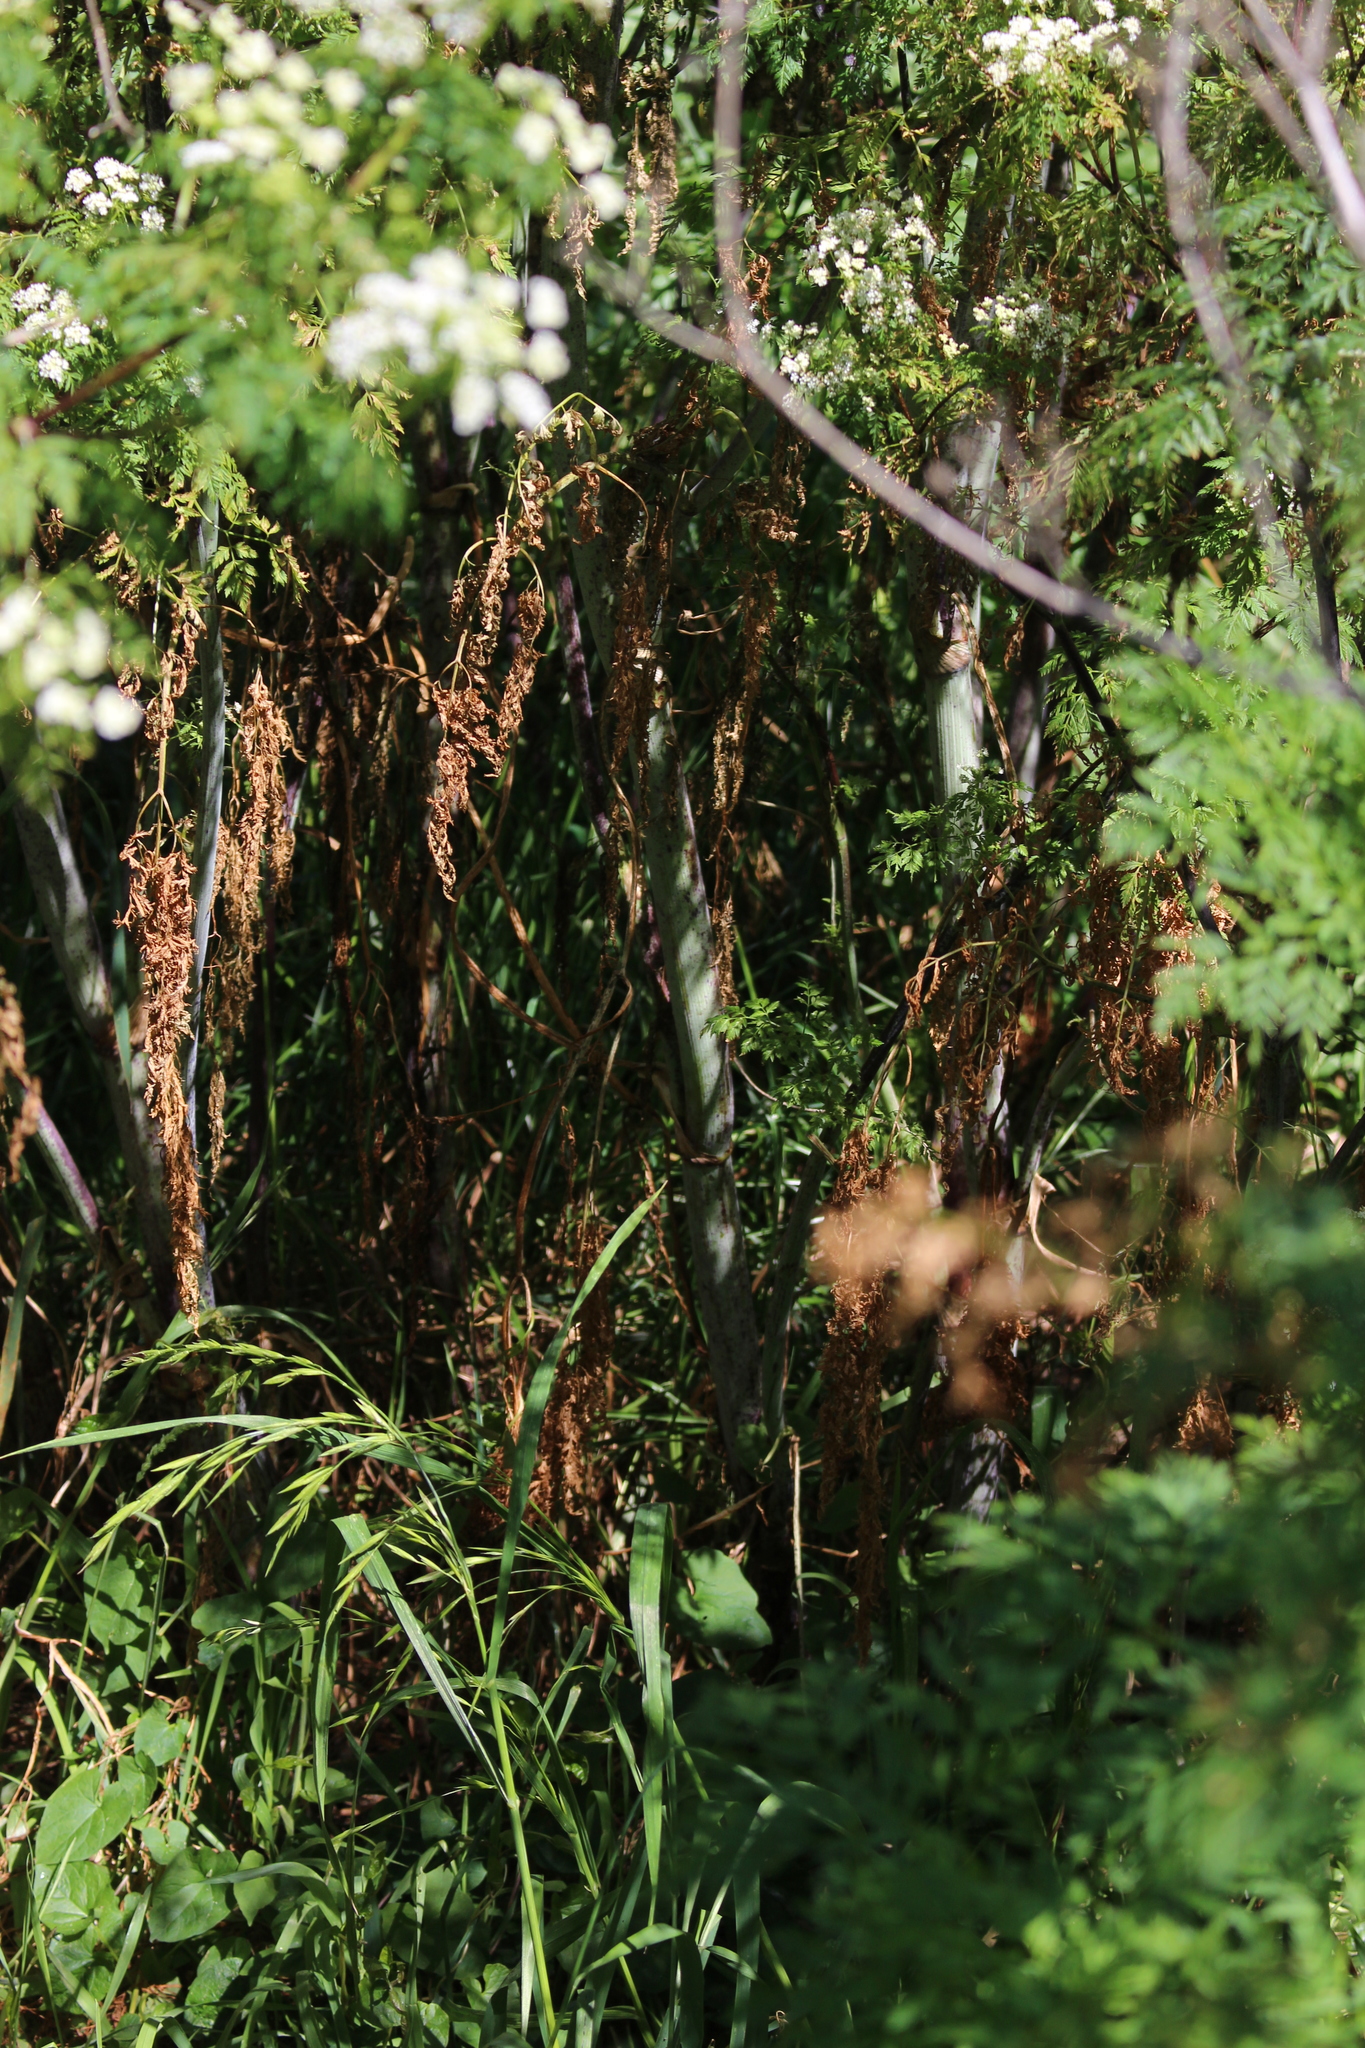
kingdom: Plantae
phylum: Tracheophyta
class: Magnoliopsida
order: Apiales
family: Apiaceae
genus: Conium
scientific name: Conium maculatum
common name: Hemlock
